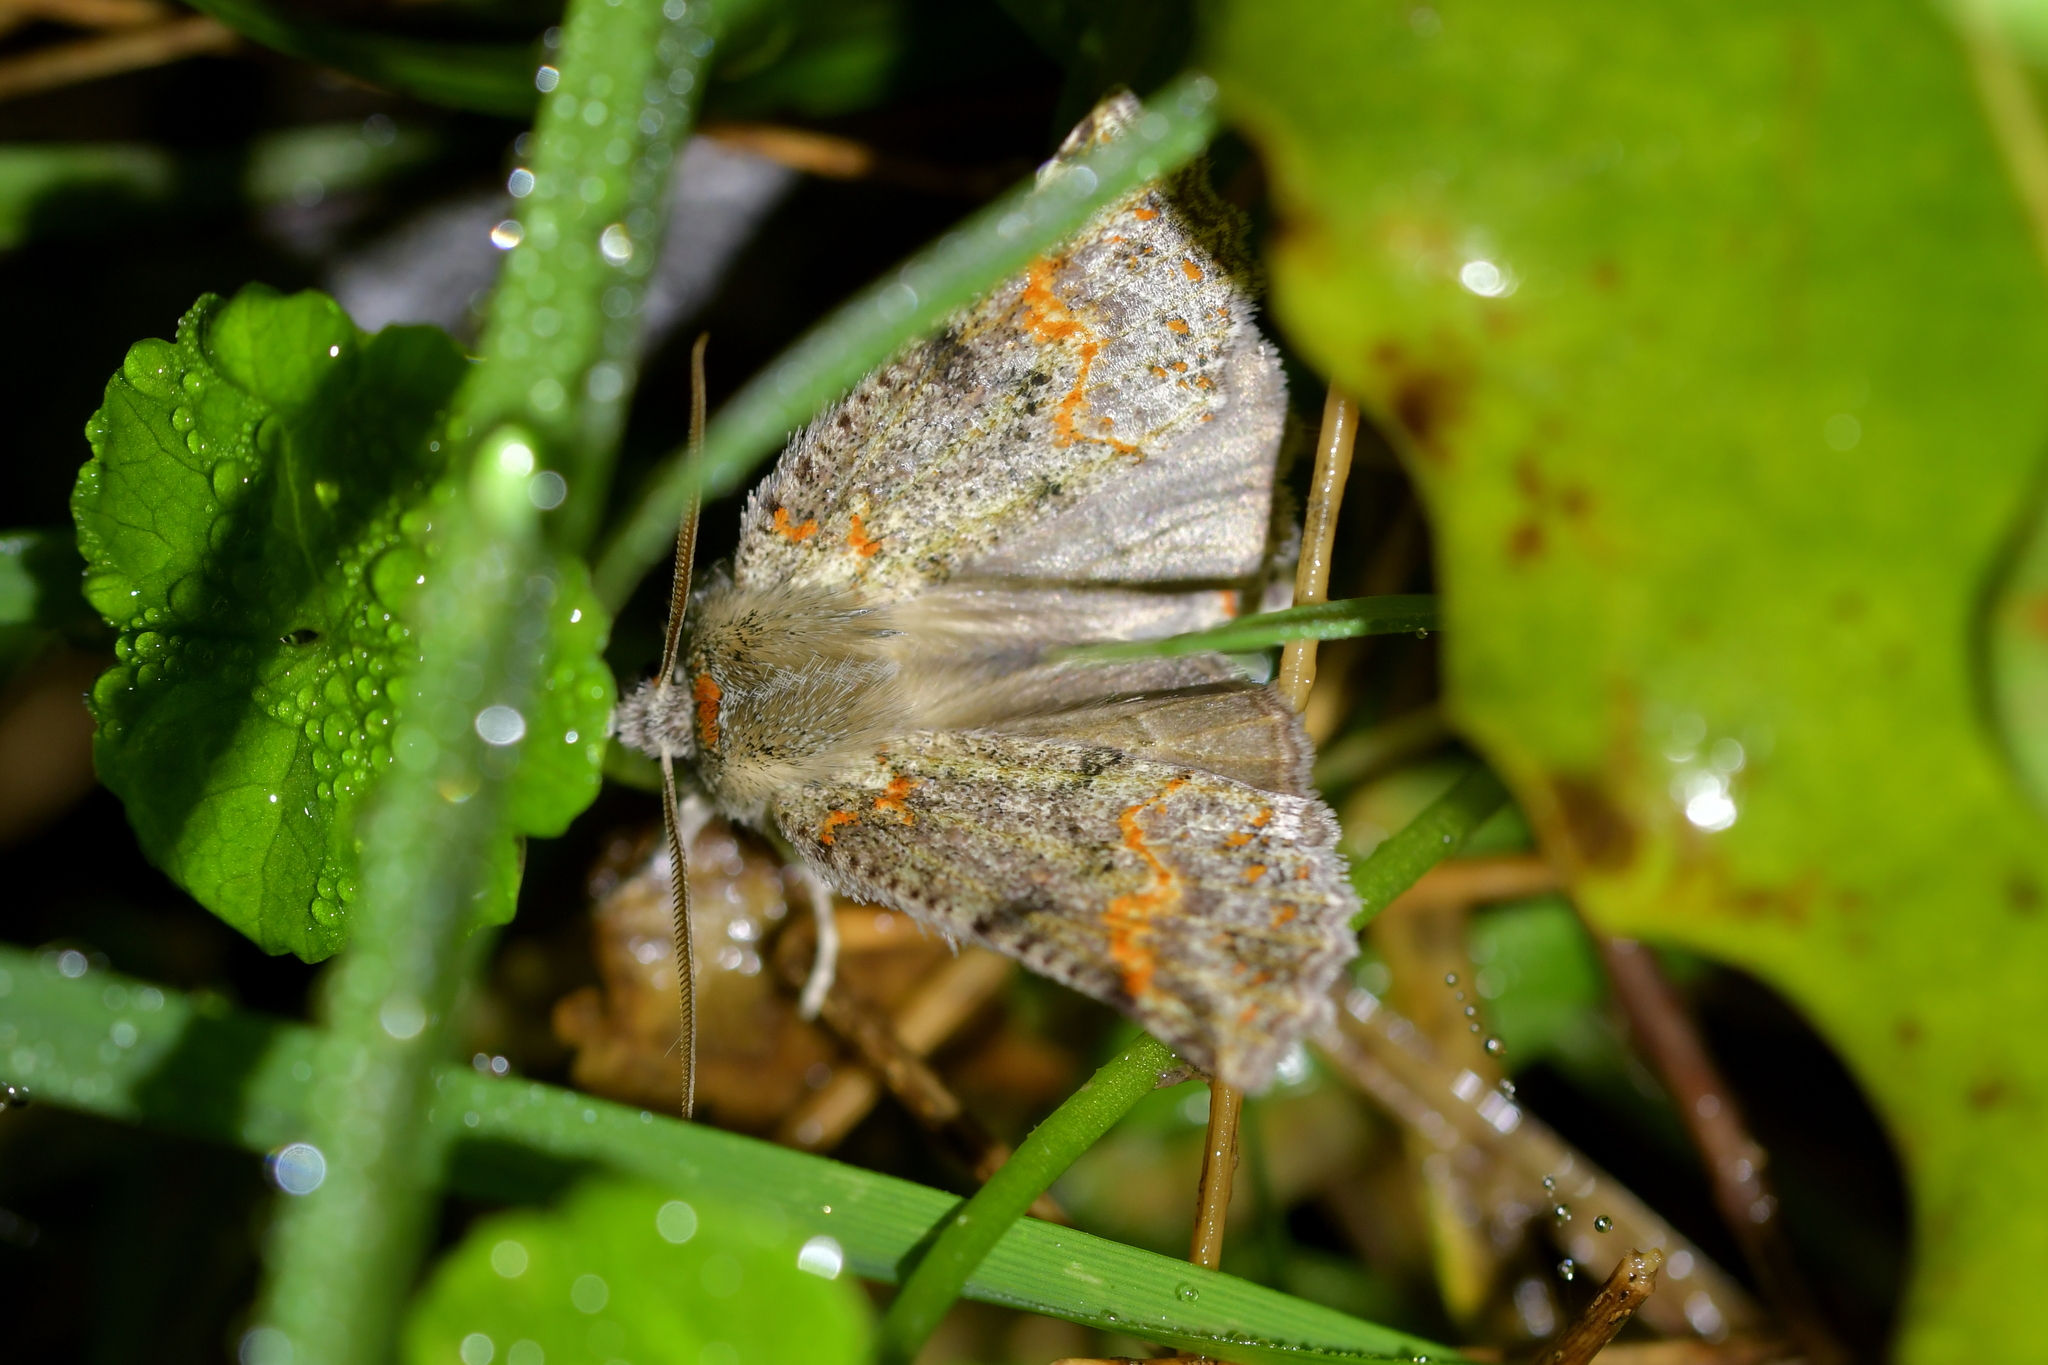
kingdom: Animalia
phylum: Arthropoda
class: Insecta
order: Lepidoptera
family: Geometridae
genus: Declana
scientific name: Declana floccosa
